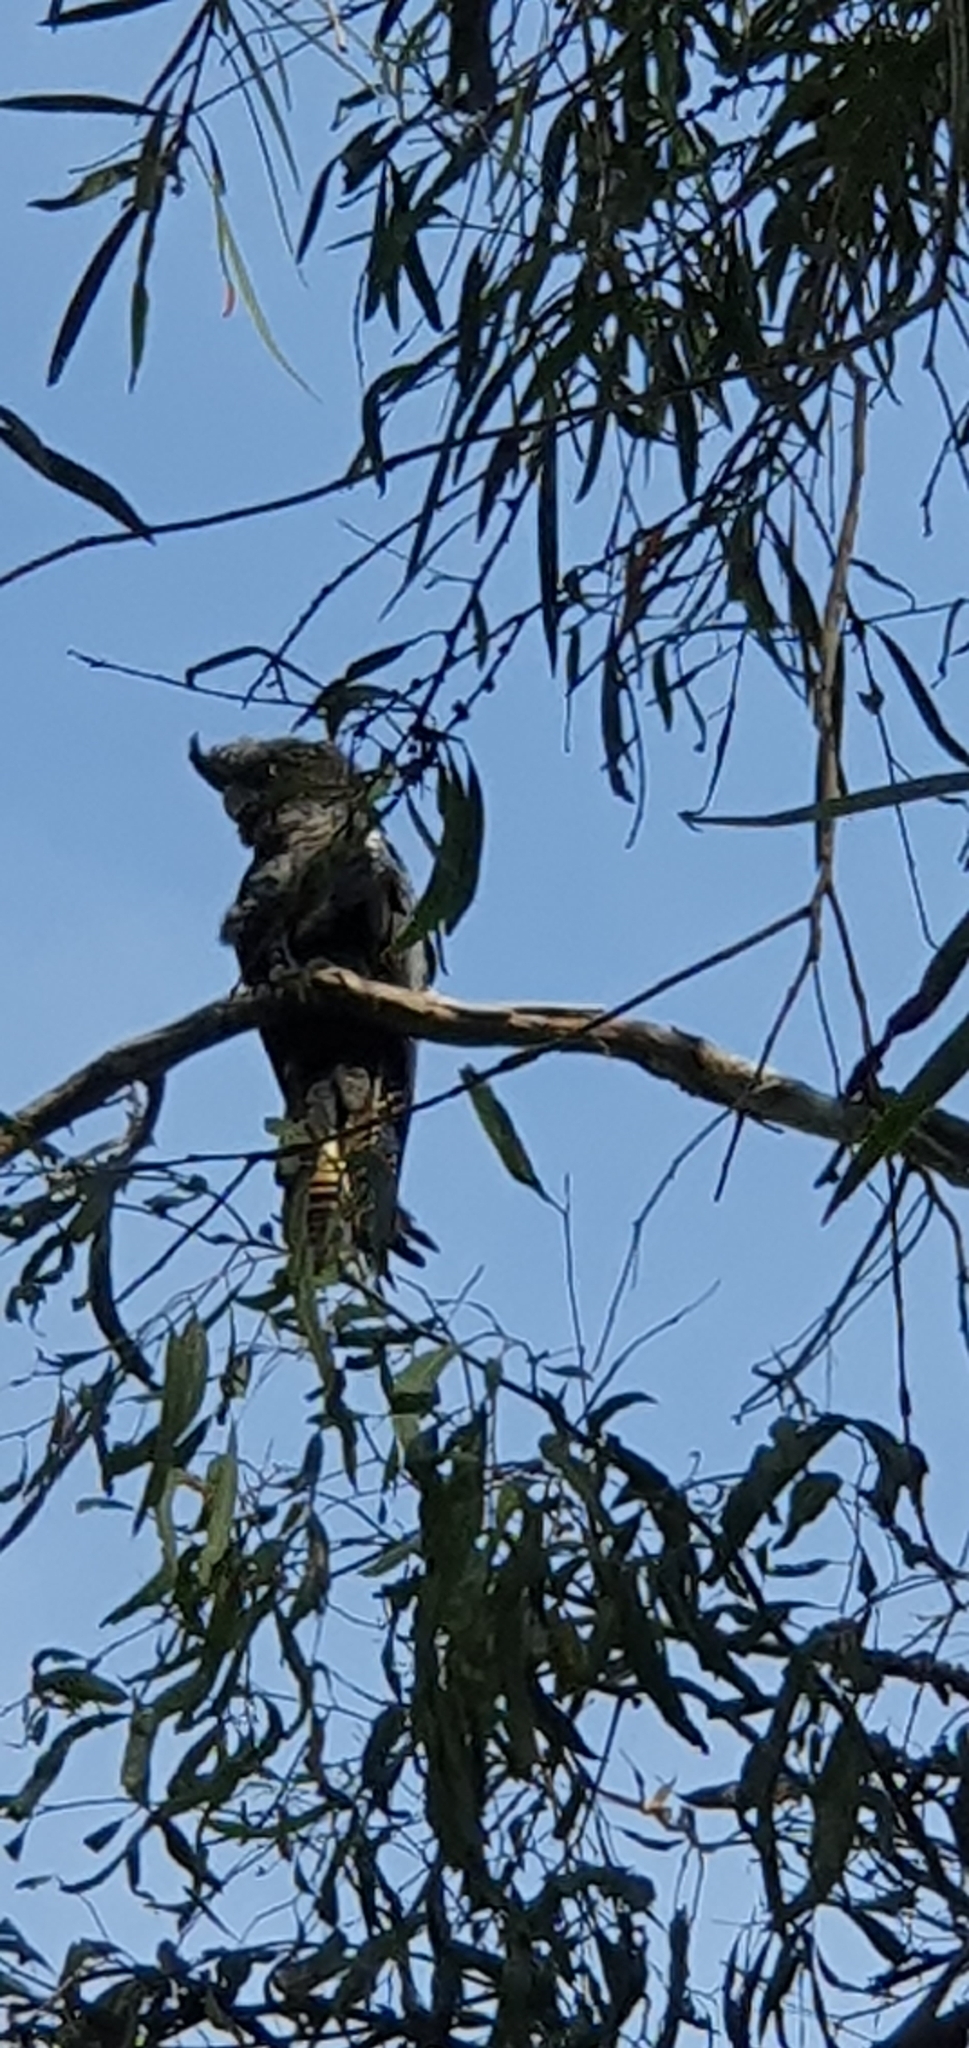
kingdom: Animalia
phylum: Chordata
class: Aves
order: Psittaciformes
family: Psittacidae
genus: Calyptorhynchus
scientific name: Calyptorhynchus banksii
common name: Red-tailed black cockatoo
